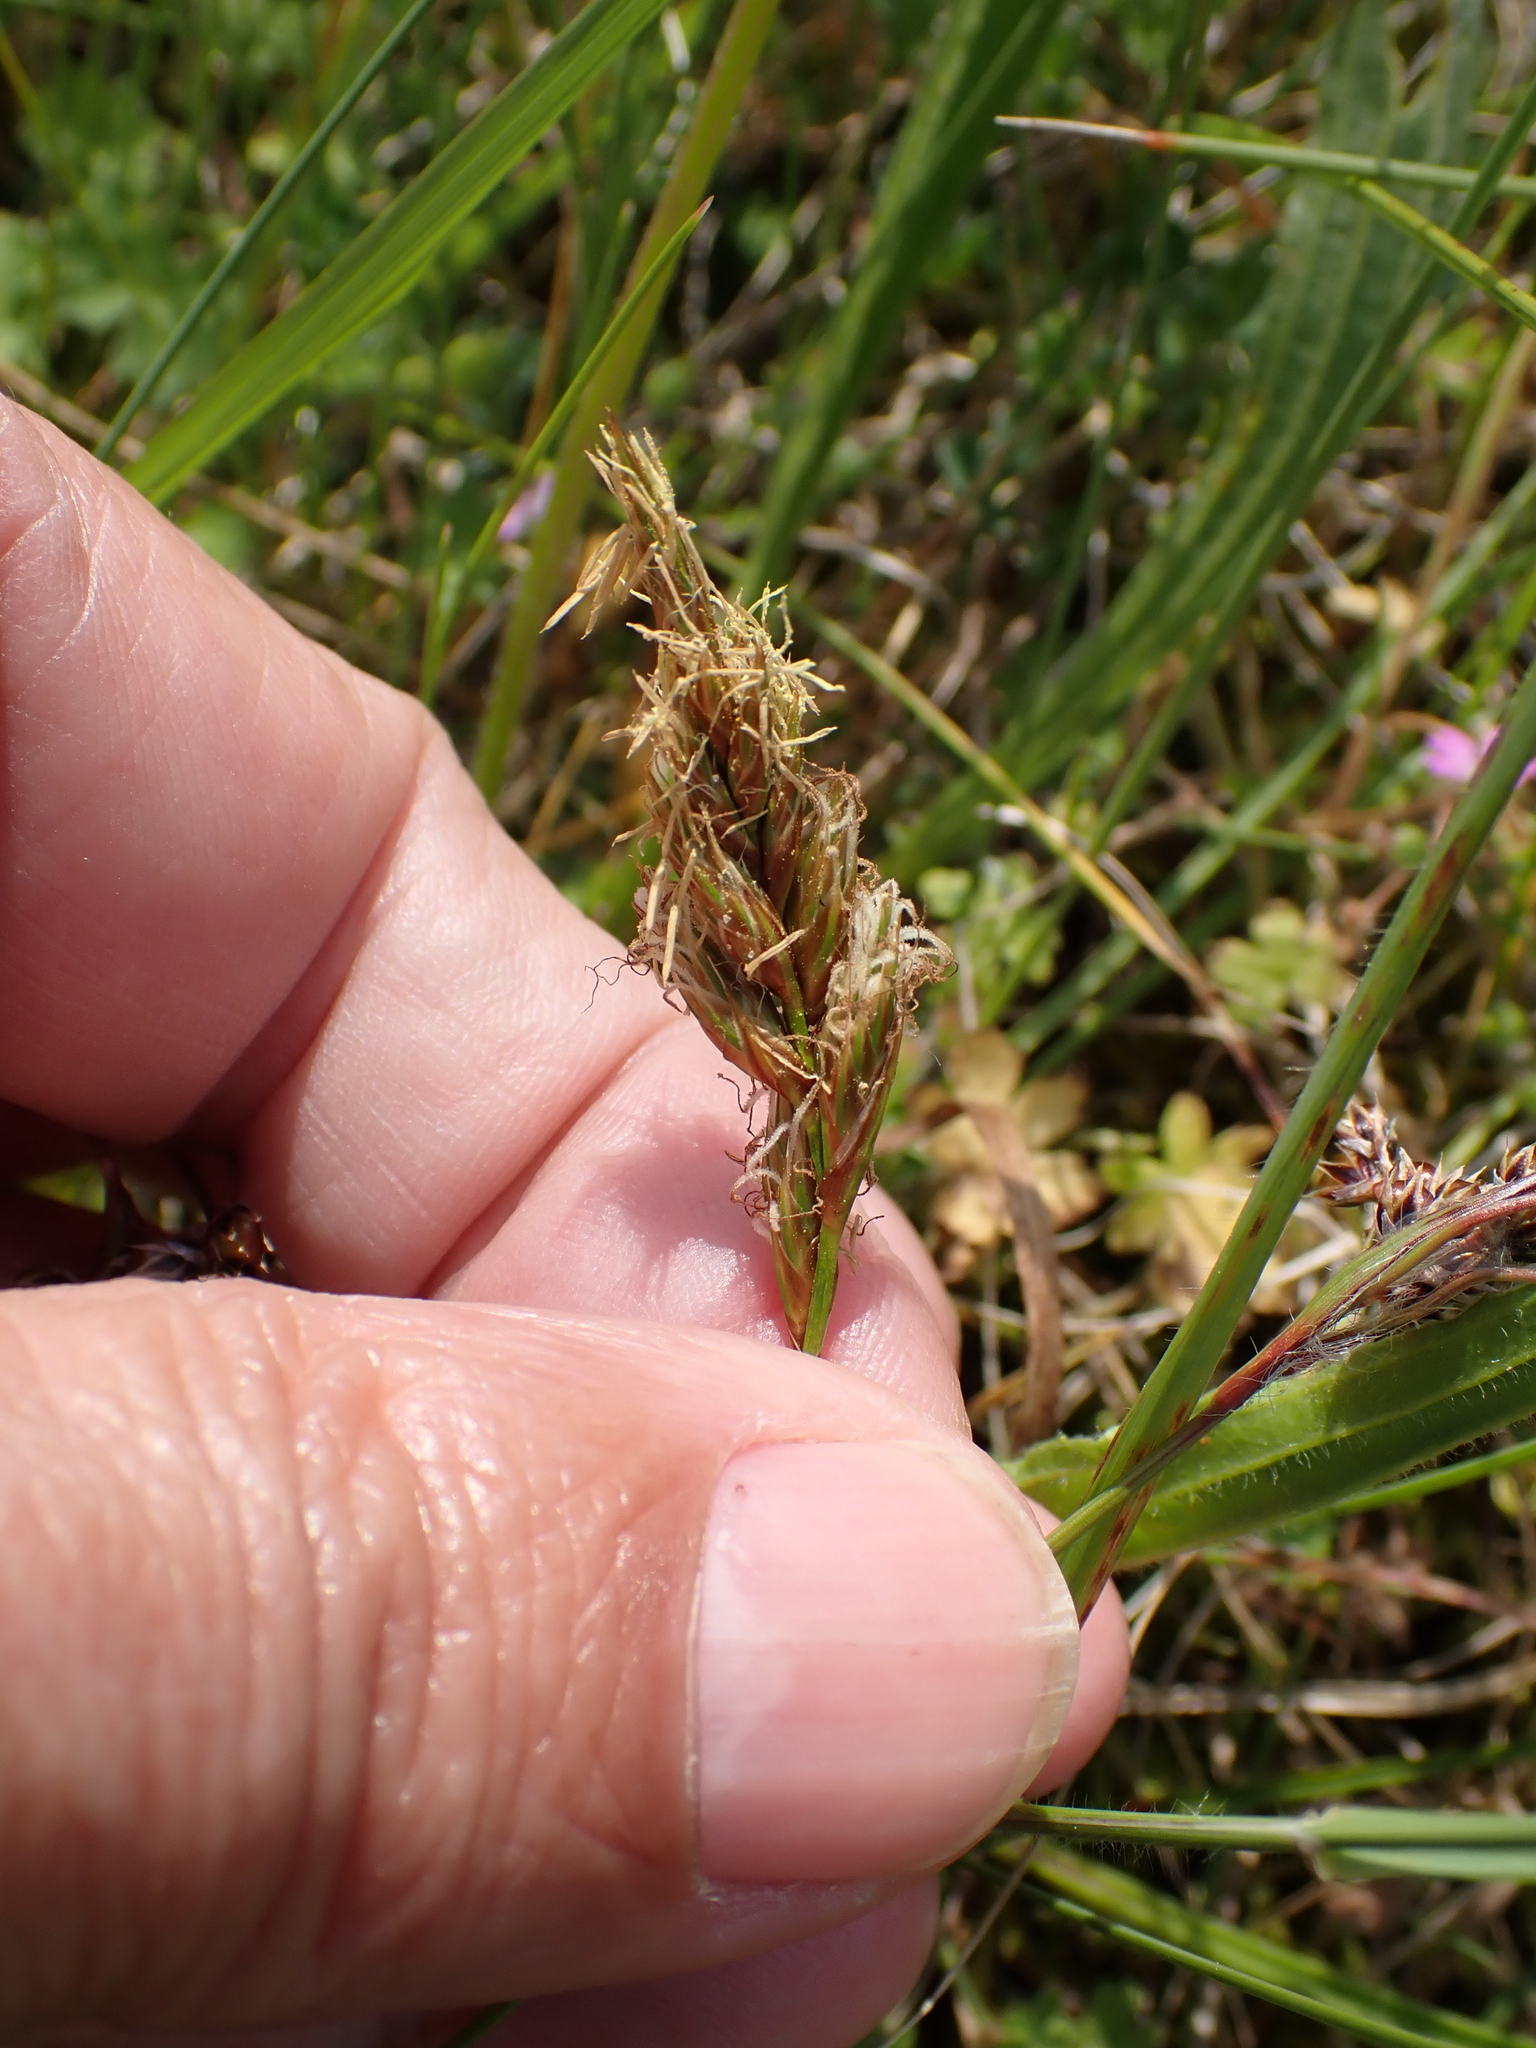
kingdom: Plantae
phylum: Tracheophyta
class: Liliopsida
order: Poales
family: Cyperaceae
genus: Carex
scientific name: Carex arenaria
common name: Sand sedge
